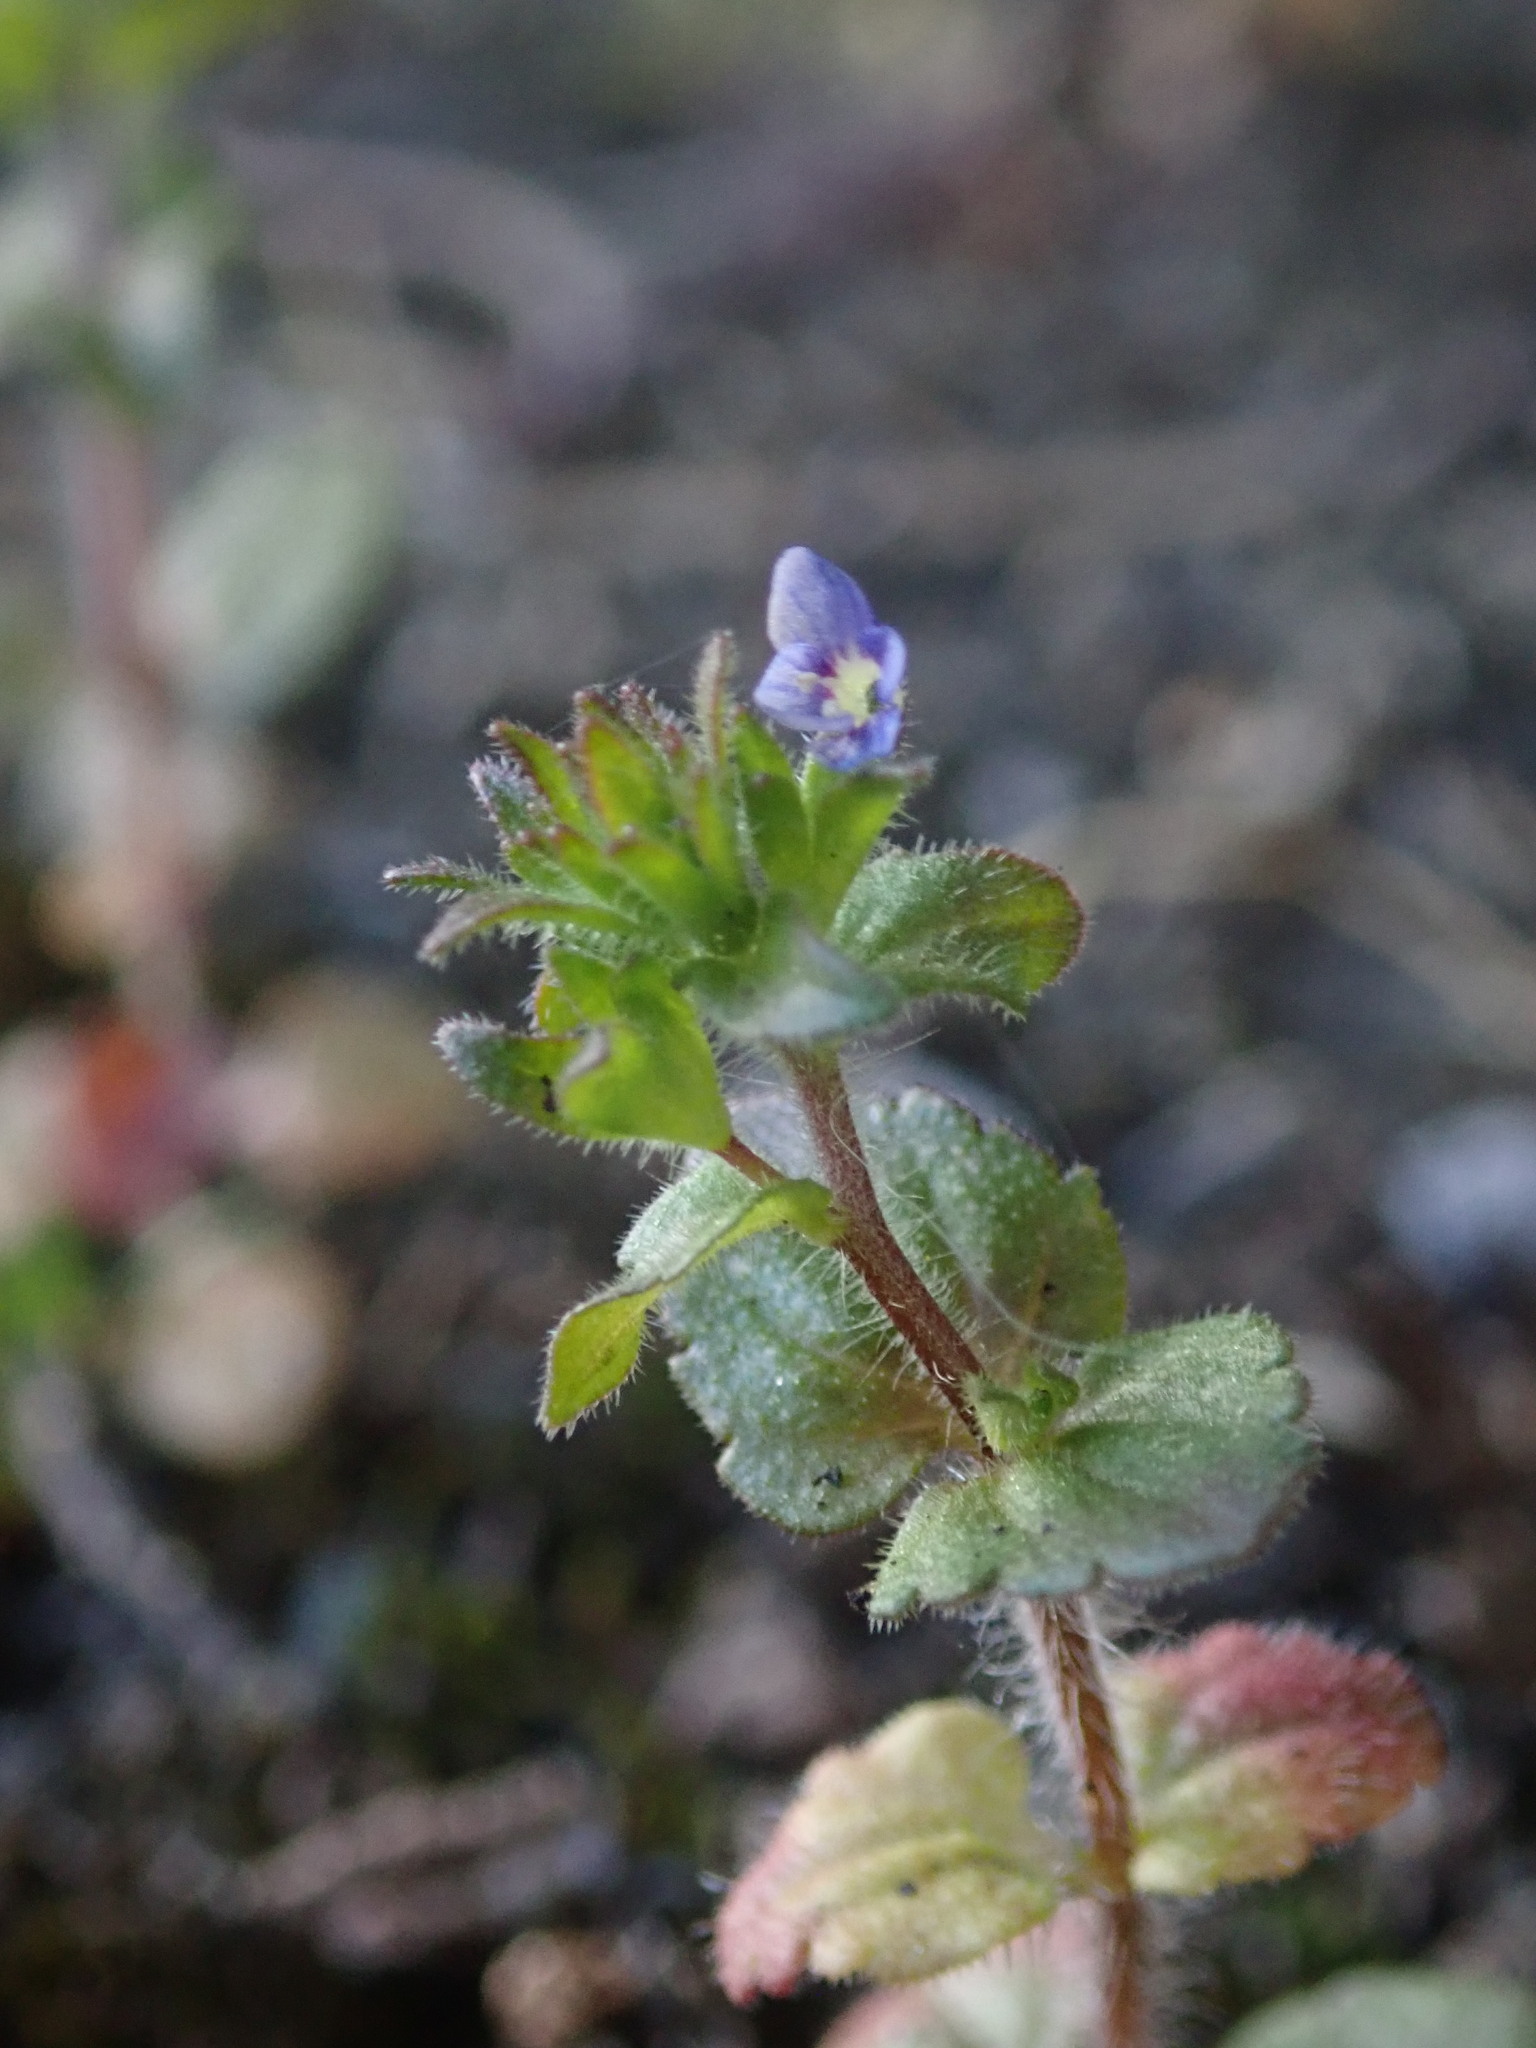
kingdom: Plantae
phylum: Tracheophyta
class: Magnoliopsida
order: Lamiales
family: Plantaginaceae
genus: Veronica
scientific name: Veronica arvensis
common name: Corn speedwell
